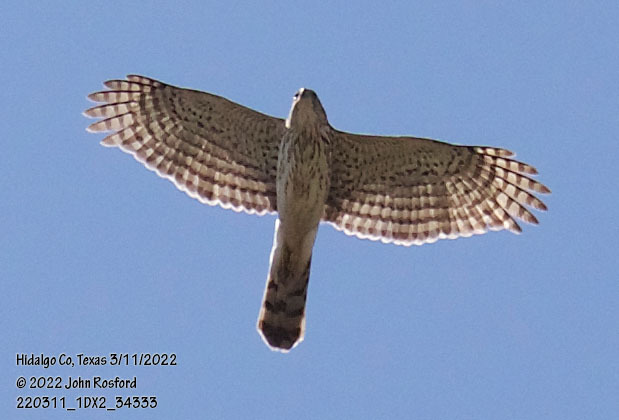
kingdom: Animalia
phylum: Chordata
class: Aves
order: Accipitriformes
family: Accipitridae
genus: Accipiter
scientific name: Accipiter cooperii
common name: Cooper's hawk
